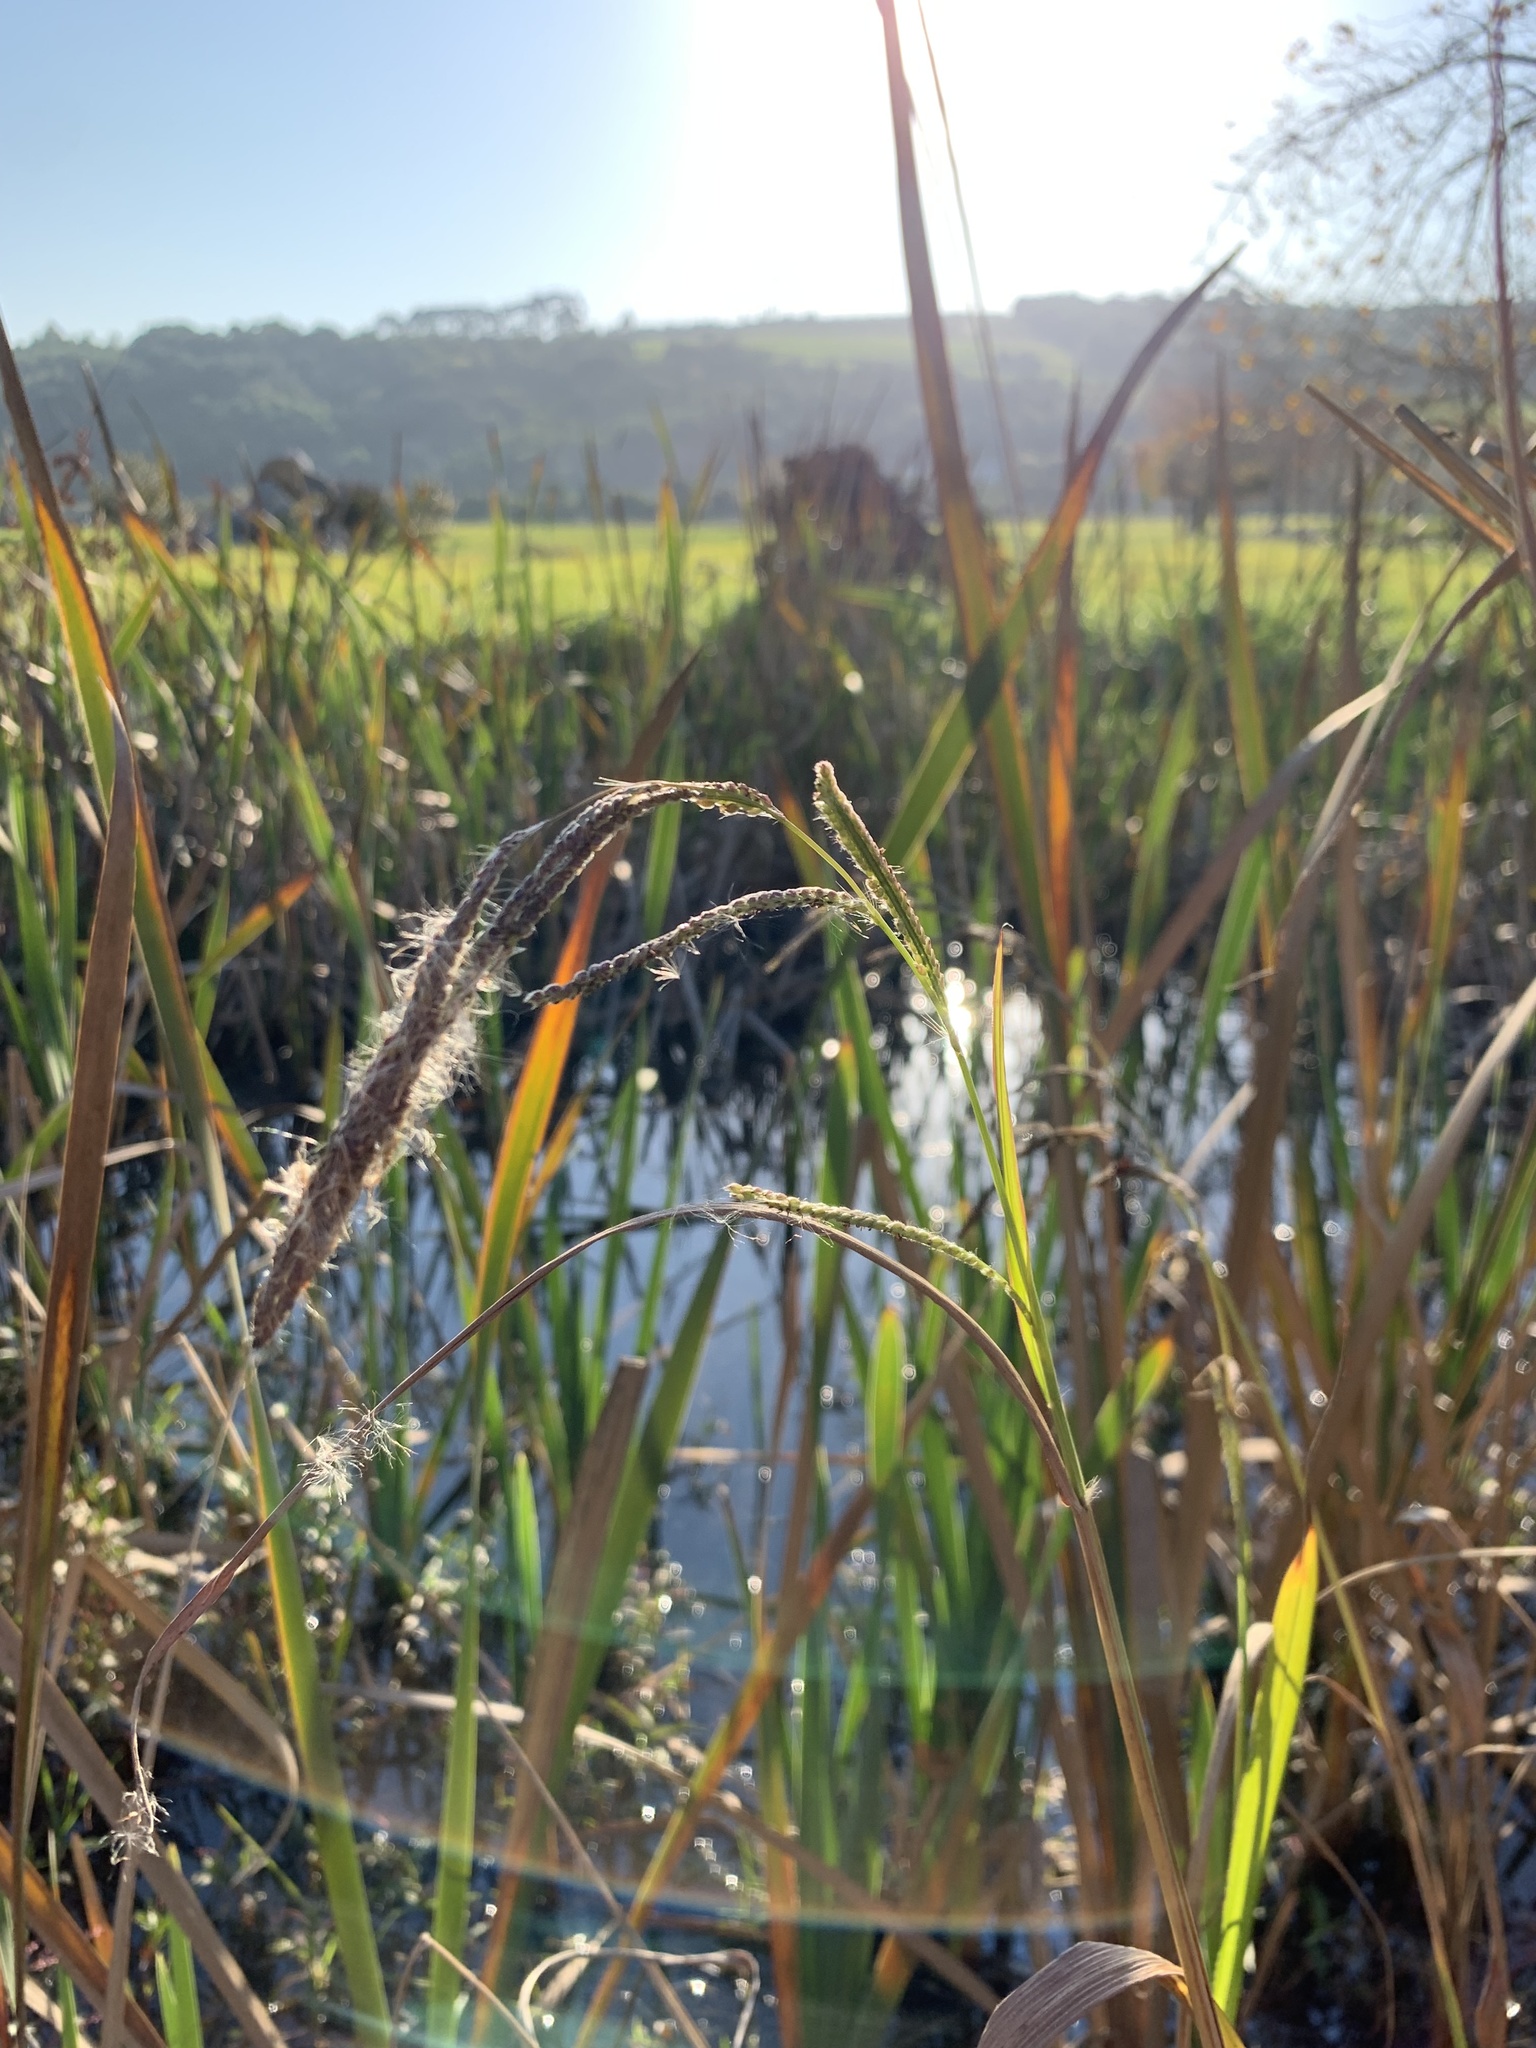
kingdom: Plantae
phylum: Tracheophyta
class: Liliopsida
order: Poales
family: Poaceae
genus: Paspalum
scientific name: Paspalum urvillei
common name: Vasey's grass
